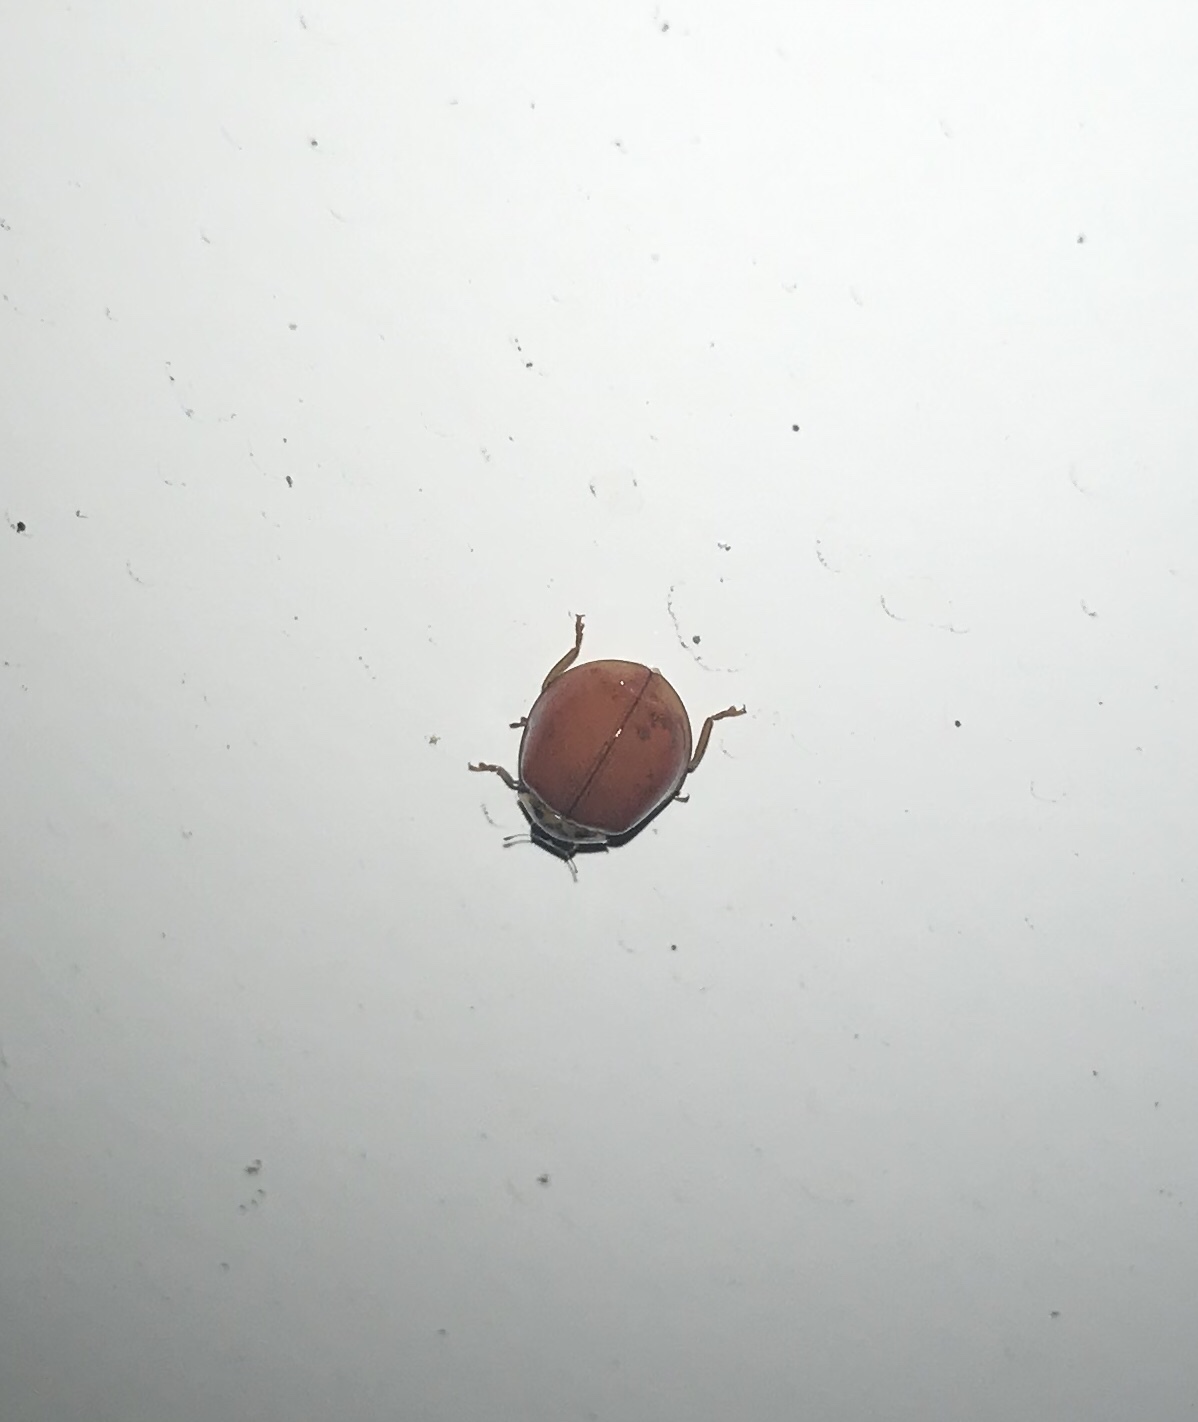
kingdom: Animalia
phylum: Arthropoda
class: Insecta
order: Coleoptera
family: Coccinellidae
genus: Harmonia
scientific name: Harmonia axyridis
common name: Harlequin ladybird
